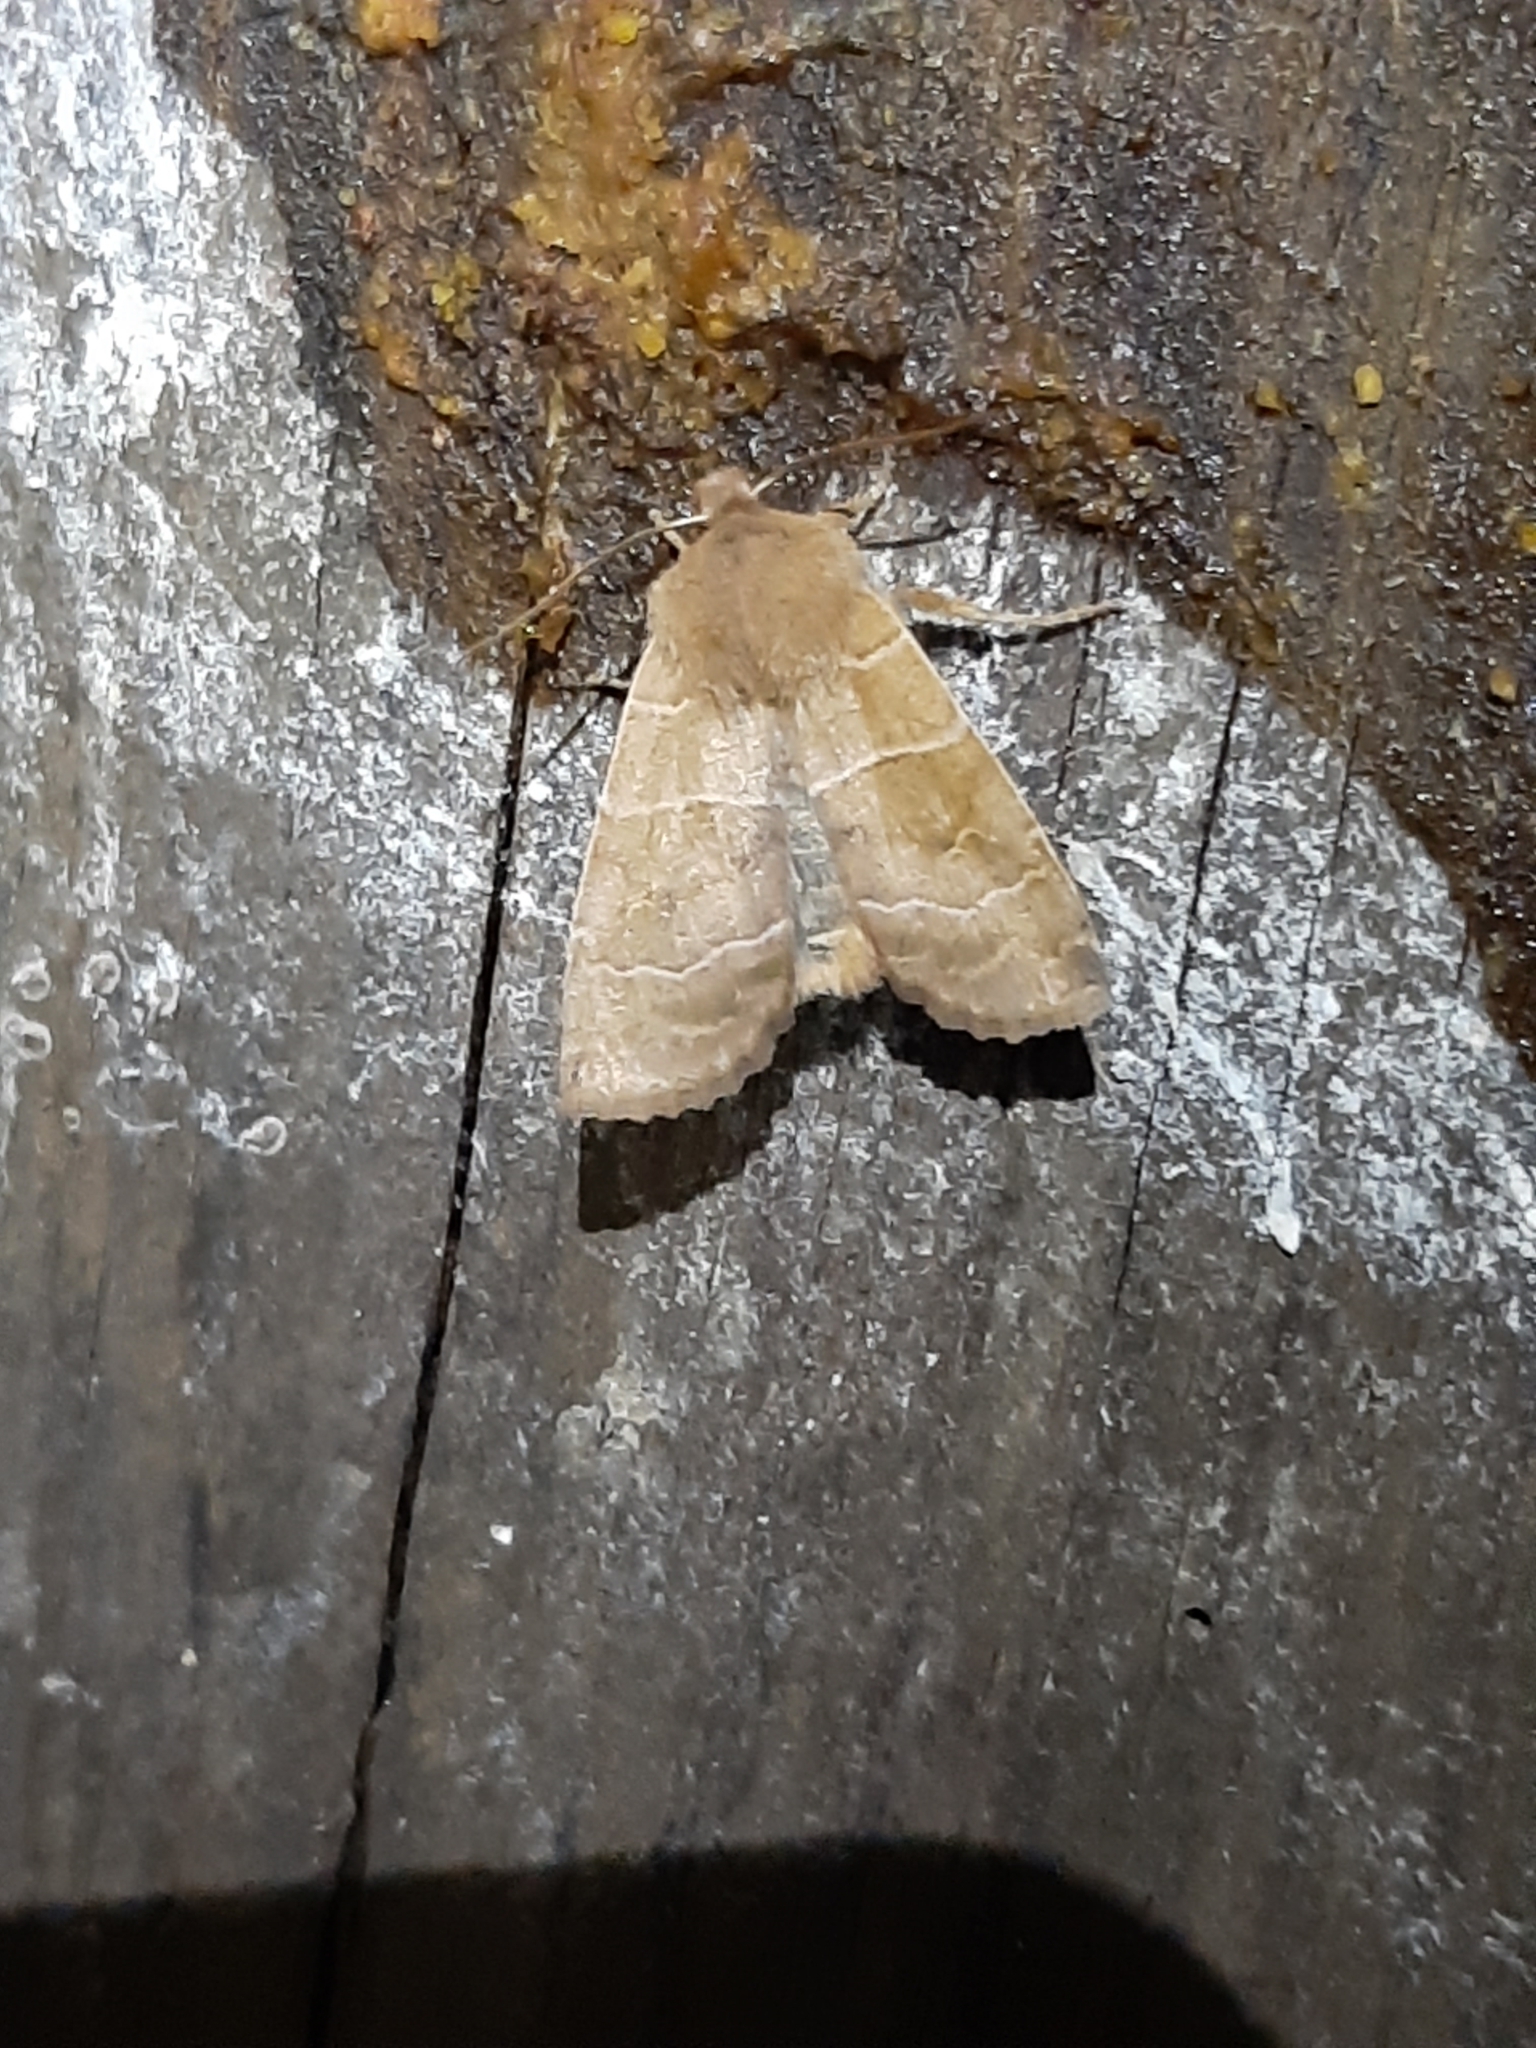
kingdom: Animalia
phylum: Arthropoda
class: Insecta
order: Lepidoptera
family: Noctuidae
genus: Eupsilia
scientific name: Eupsilia morrisoni
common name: Morrison's sallow
